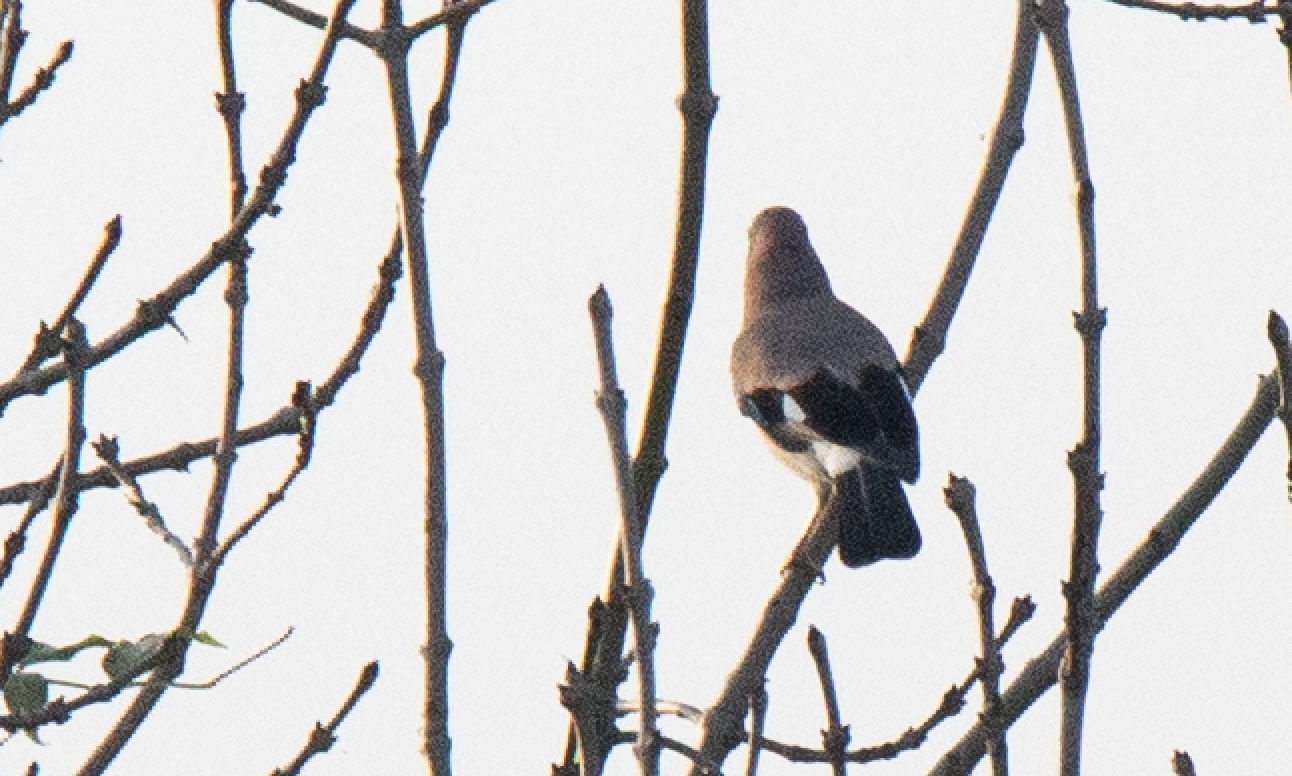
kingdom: Animalia
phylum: Chordata
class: Aves
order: Passeriformes
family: Corvidae
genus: Garrulus
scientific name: Garrulus glandarius
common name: Eurasian jay
